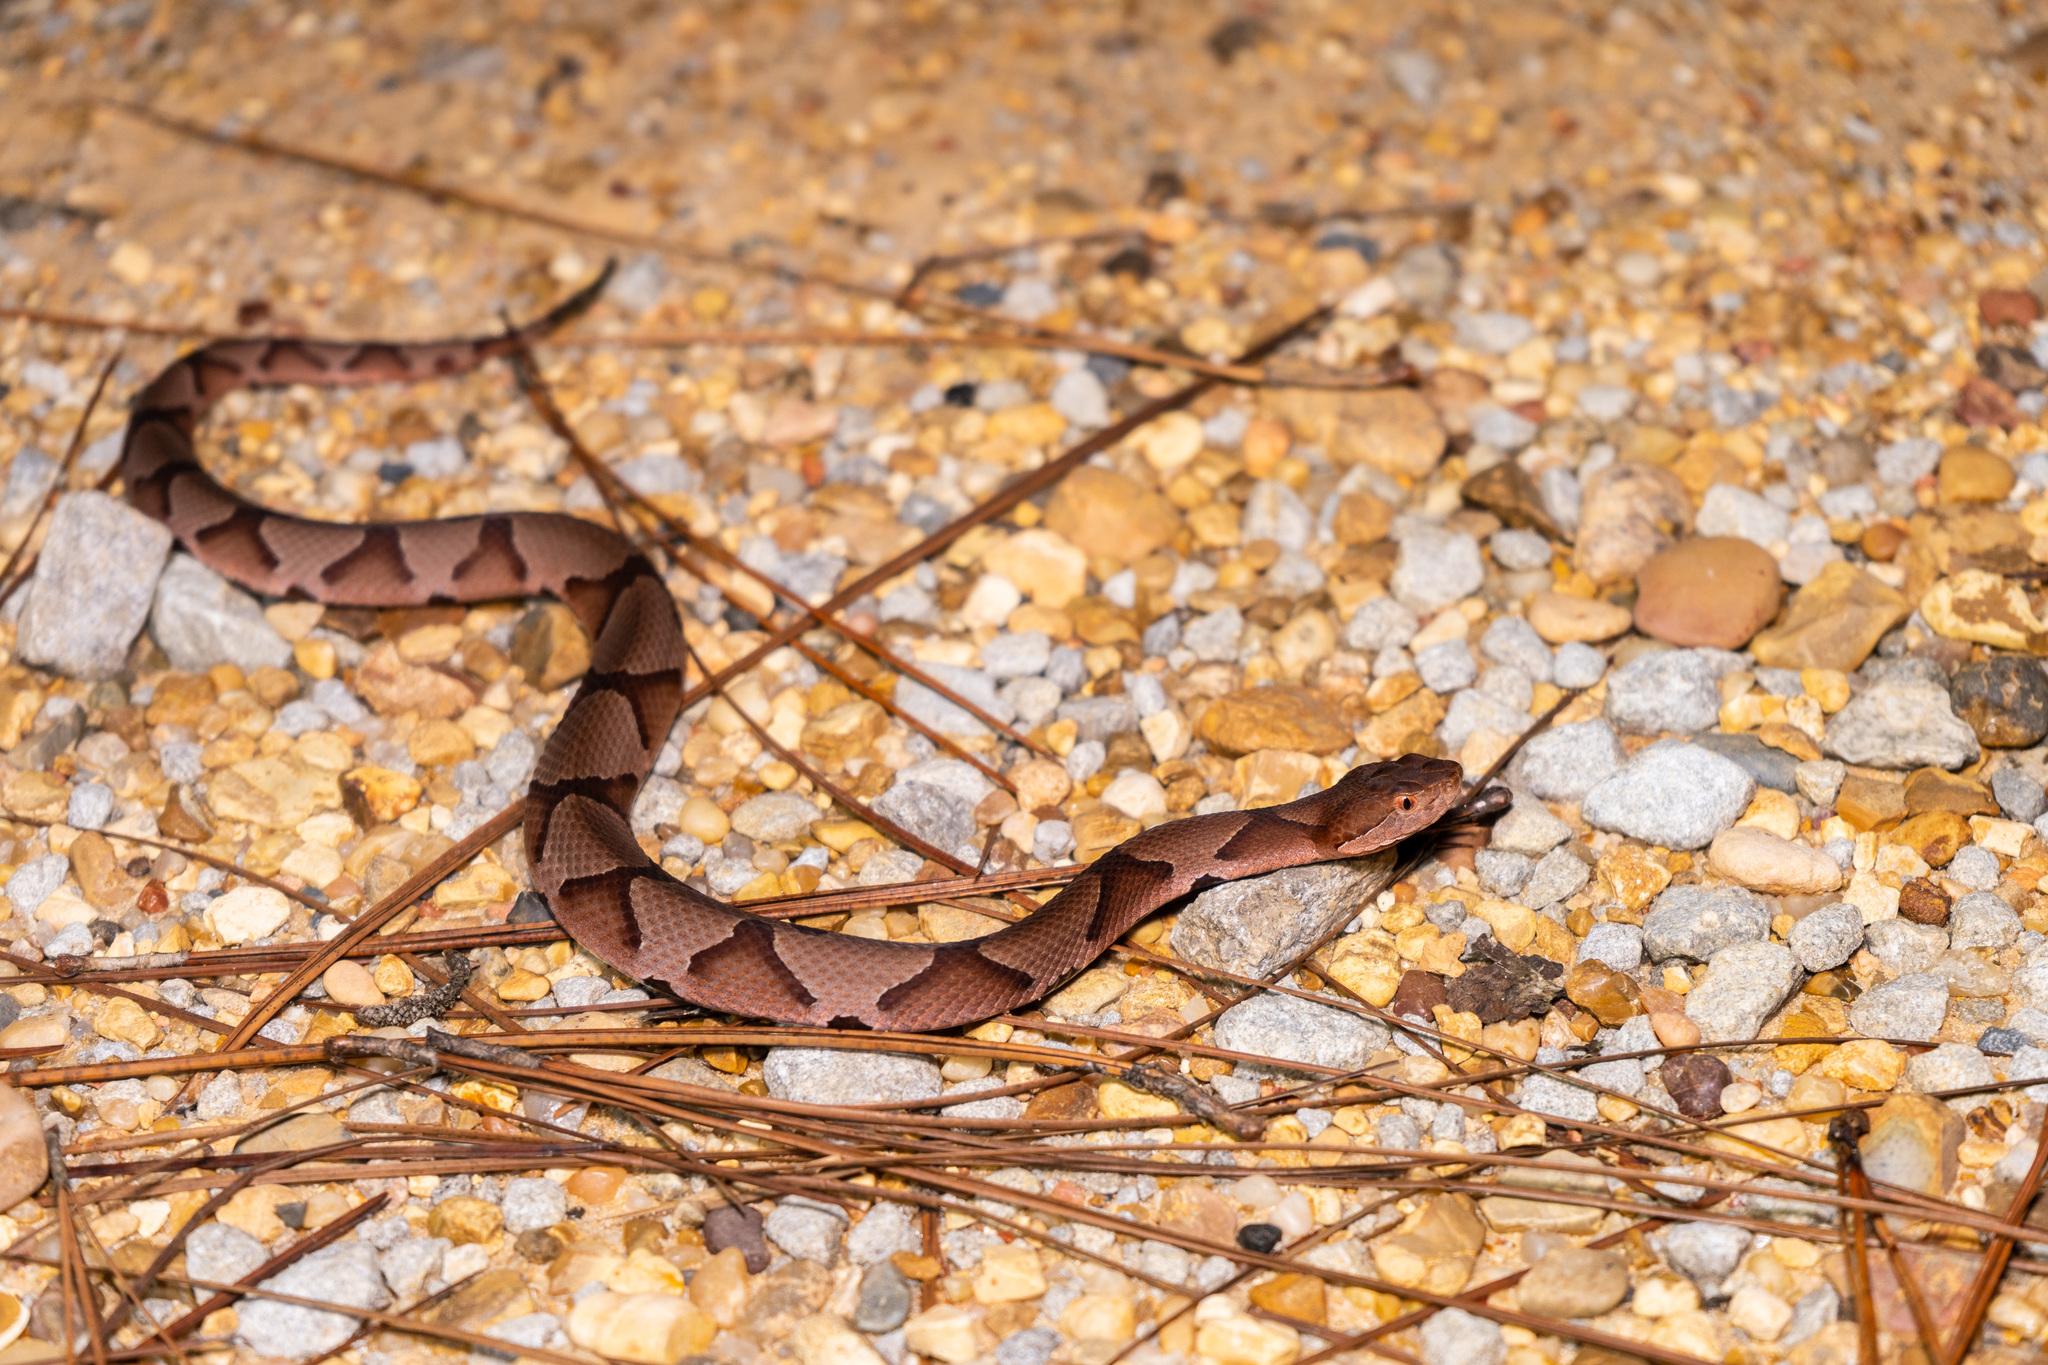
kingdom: Animalia
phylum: Chordata
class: Squamata
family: Viperidae
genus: Agkistrodon
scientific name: Agkistrodon contortrix
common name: Northern copperhead
